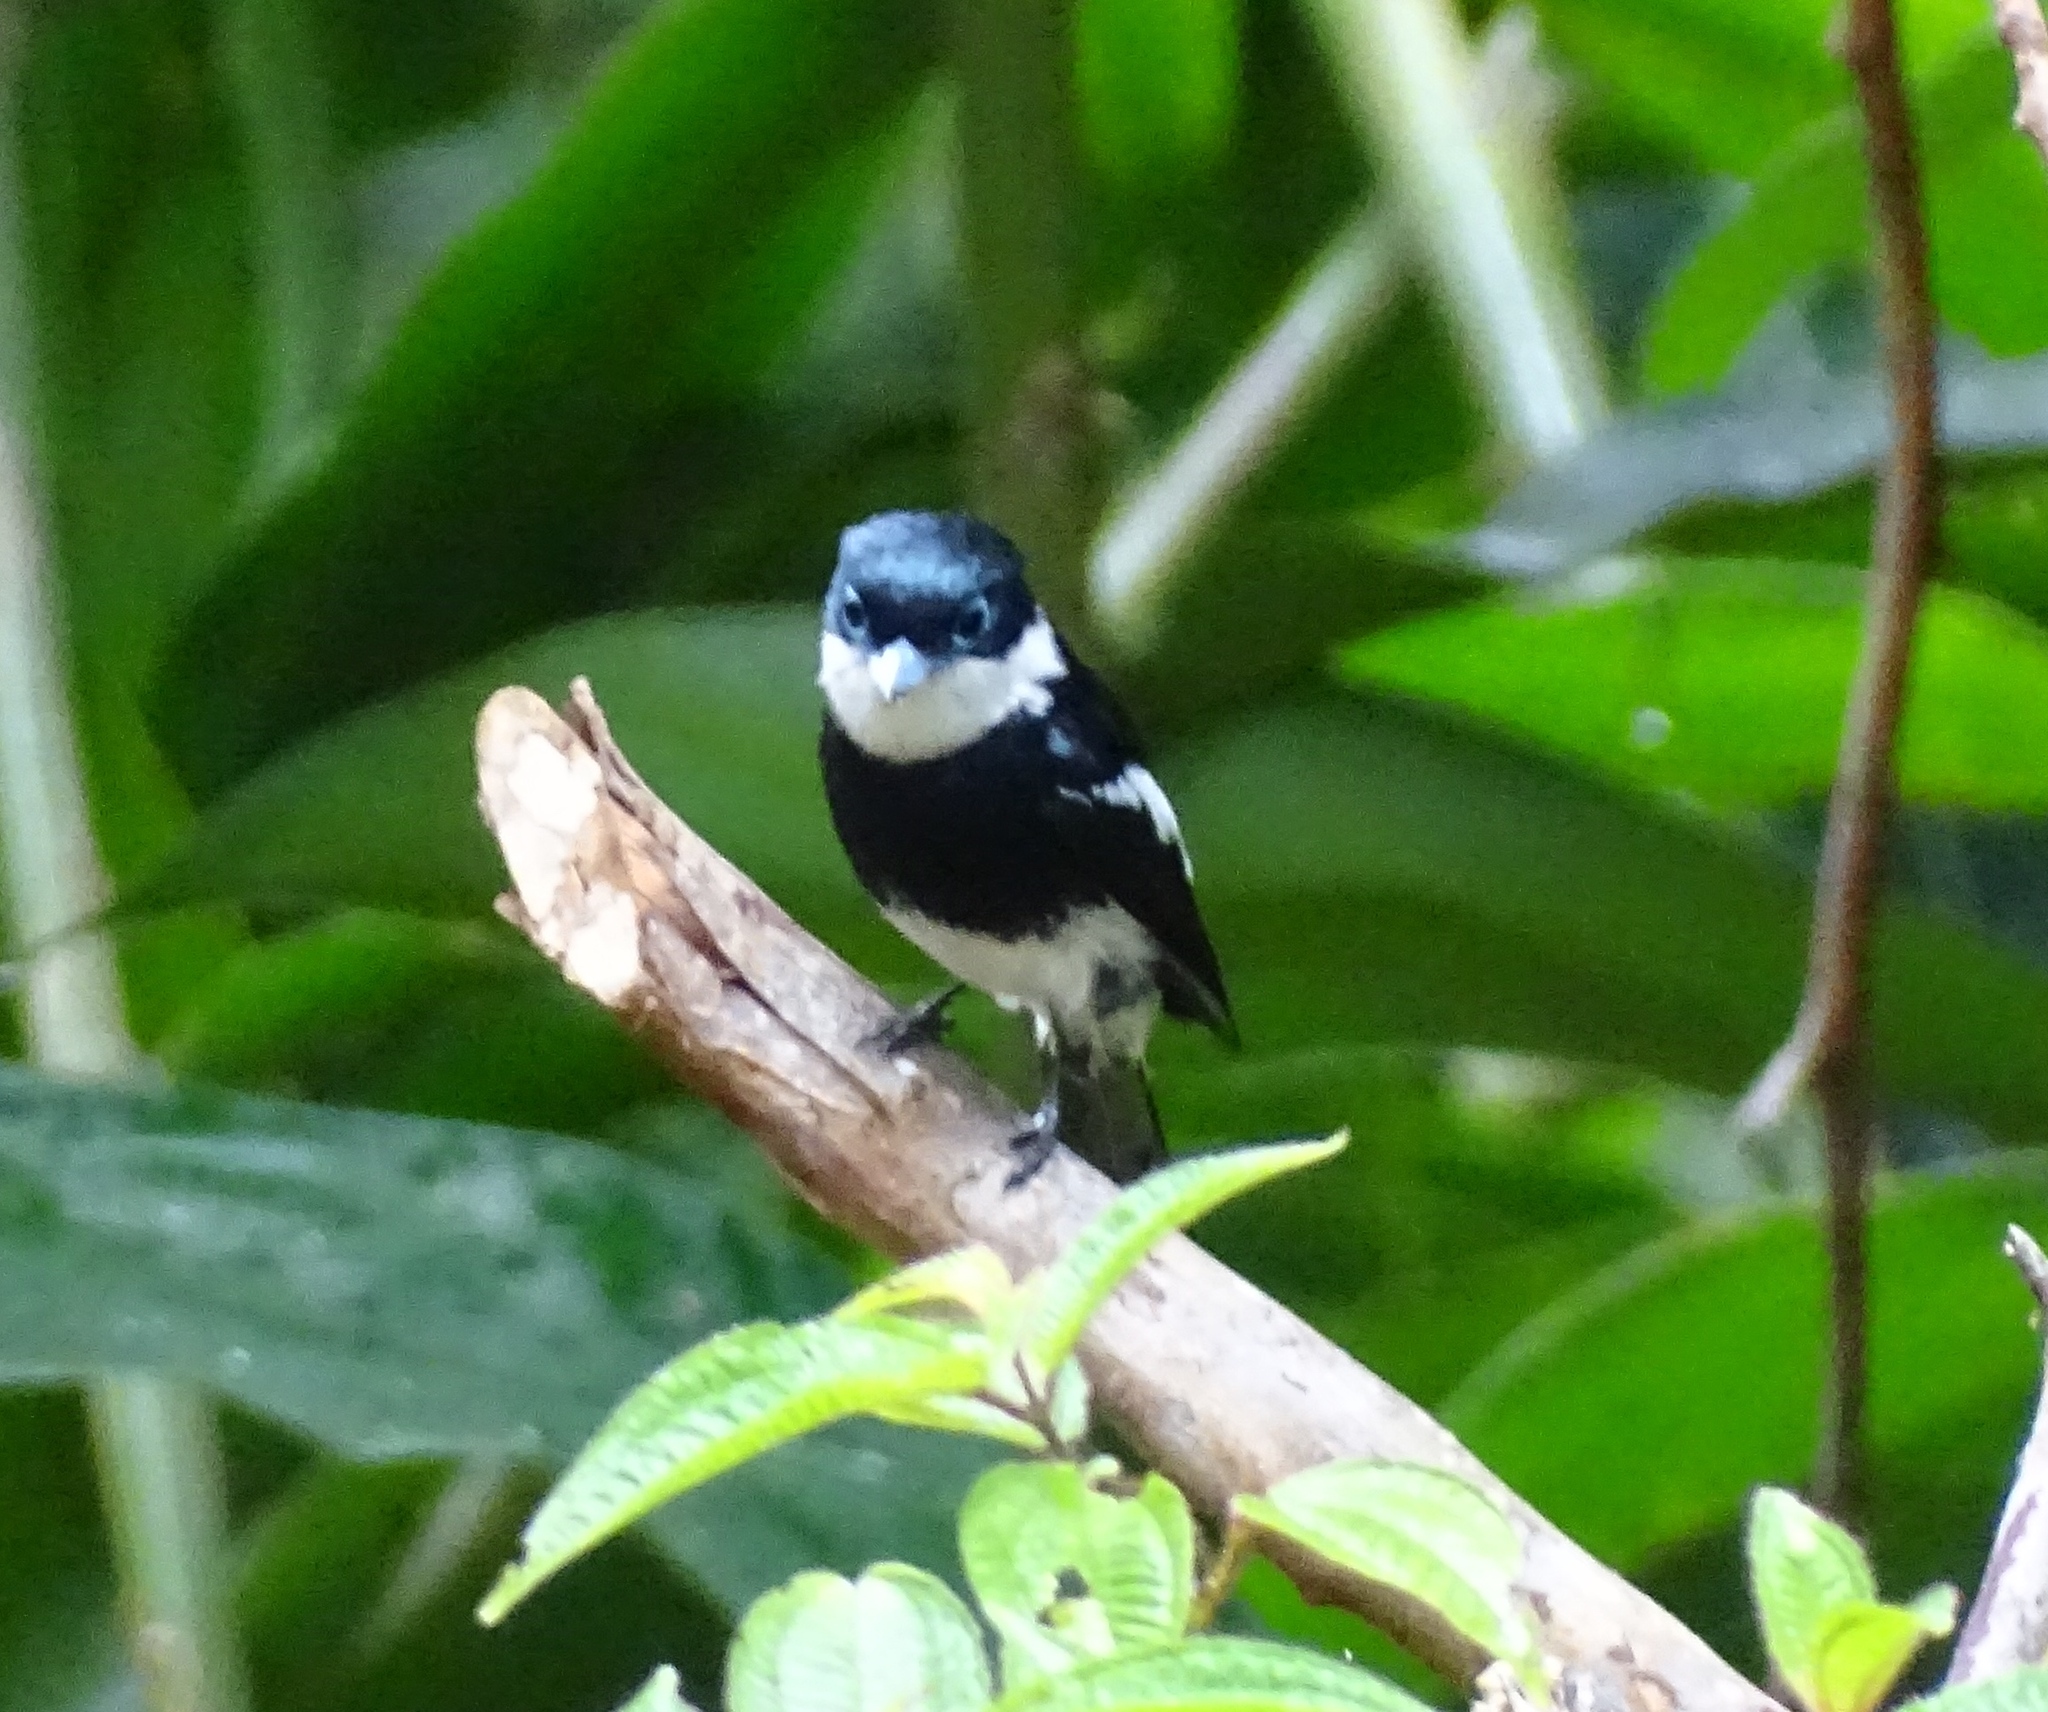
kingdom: Animalia
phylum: Chordata
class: Aves
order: Passeriformes
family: Vangidae
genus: Pseudobias
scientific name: Pseudobias wardi
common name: Ward's flycatcher
